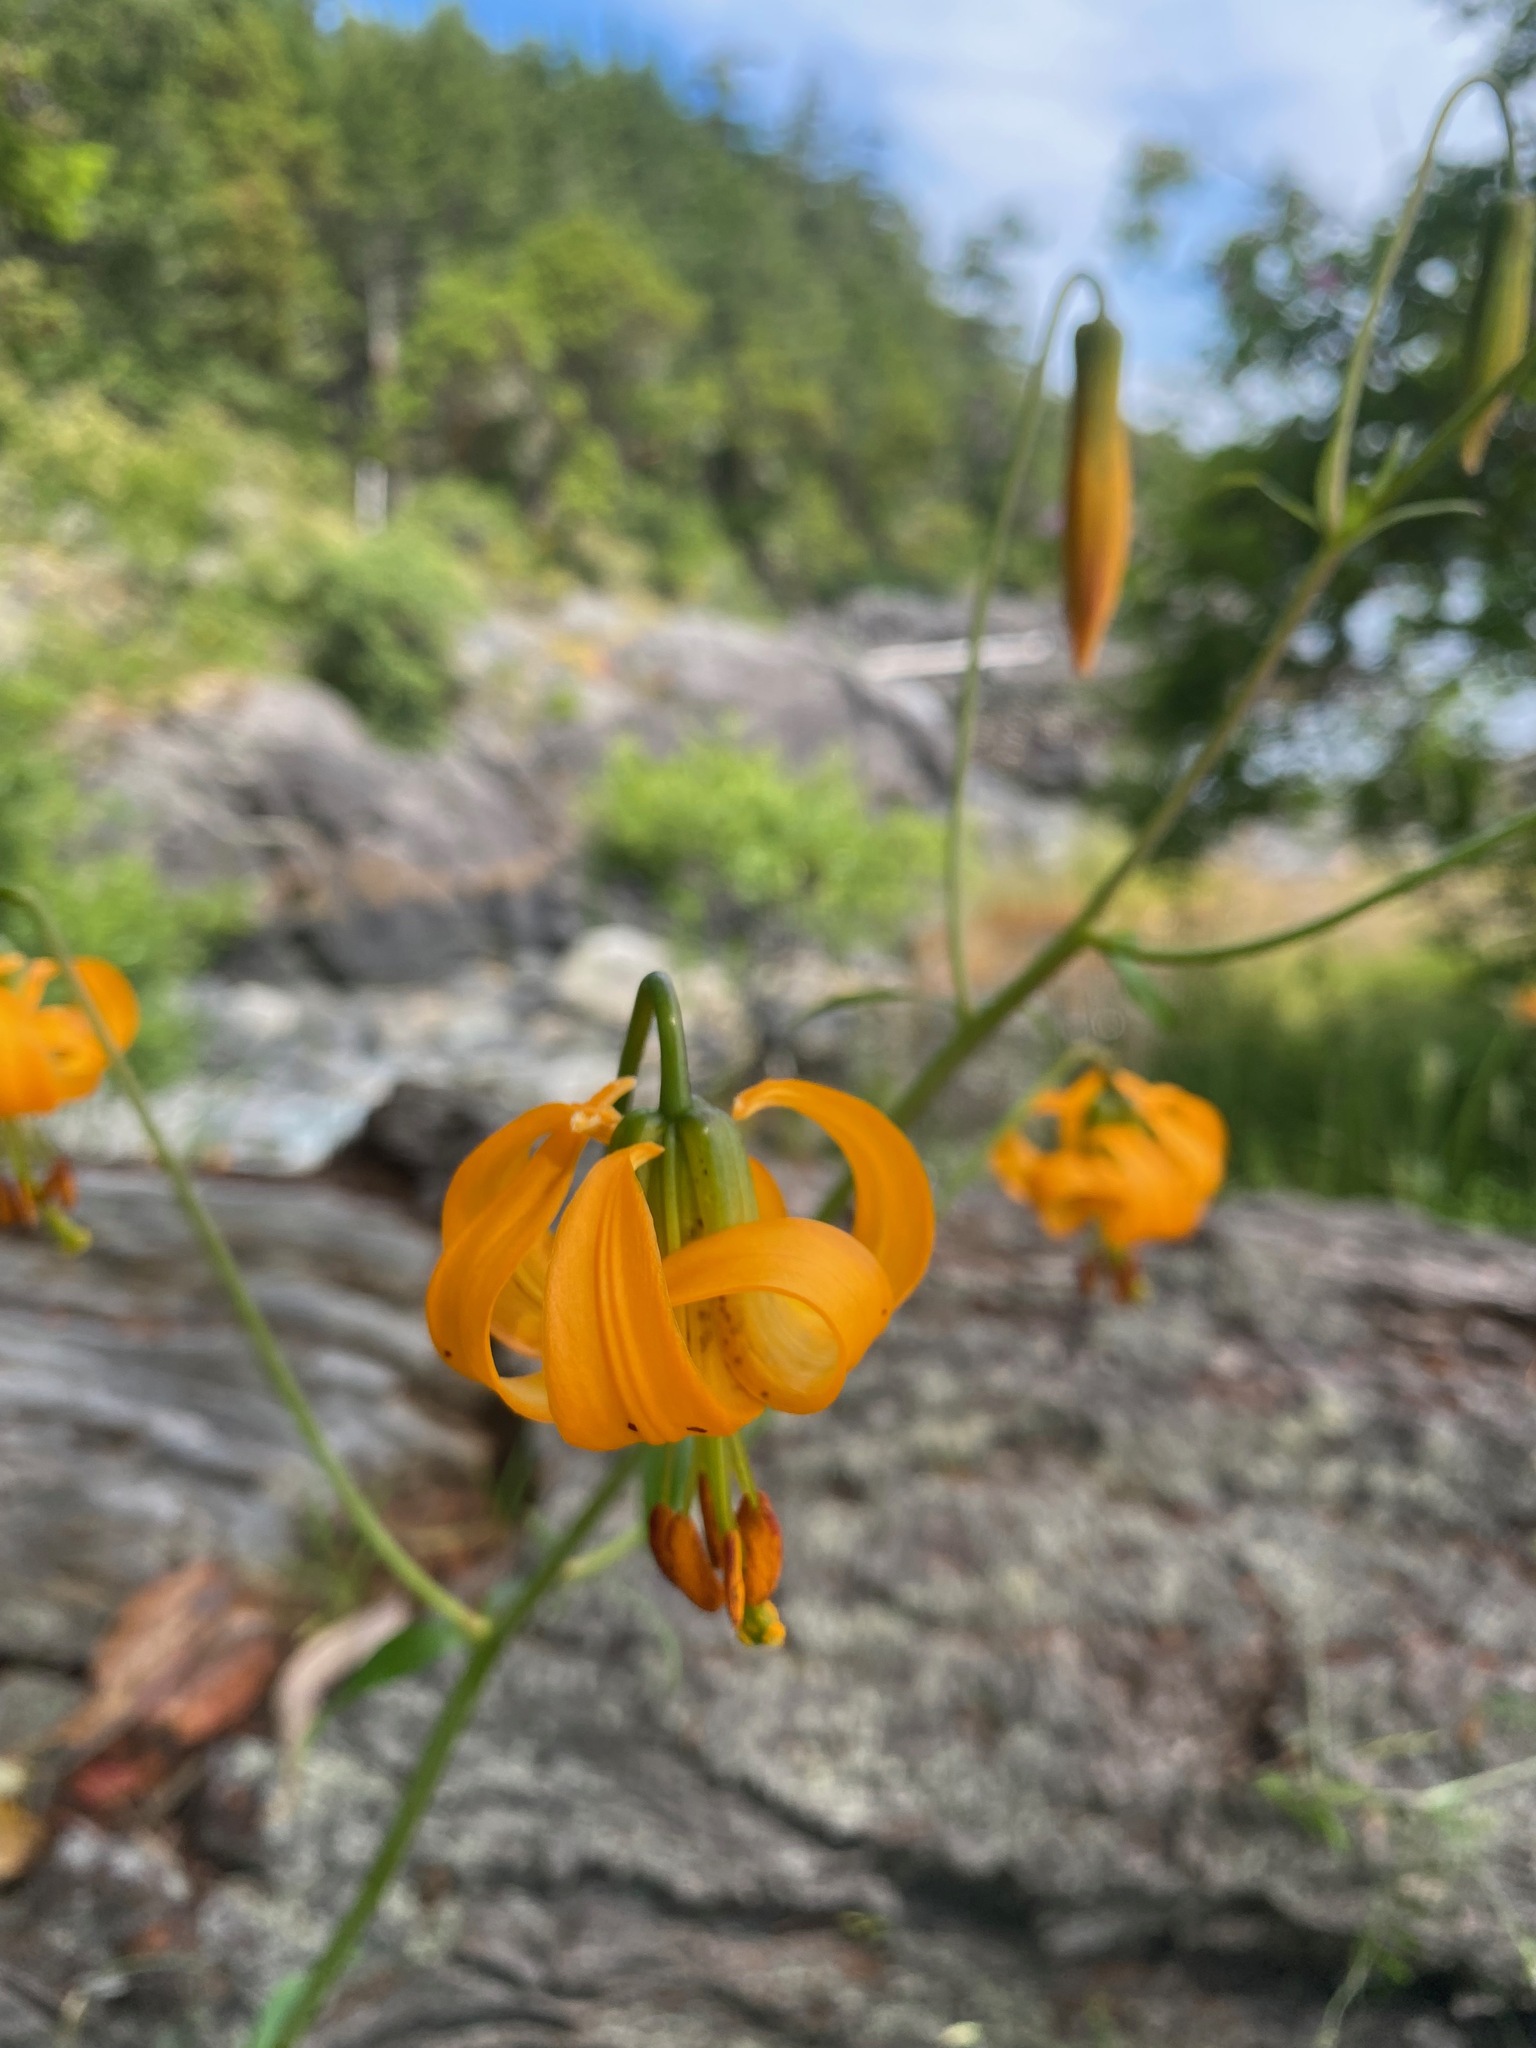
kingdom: Plantae
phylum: Tracheophyta
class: Liliopsida
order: Liliales
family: Liliaceae
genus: Lilium
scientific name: Lilium columbianum
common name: Columbia lily
